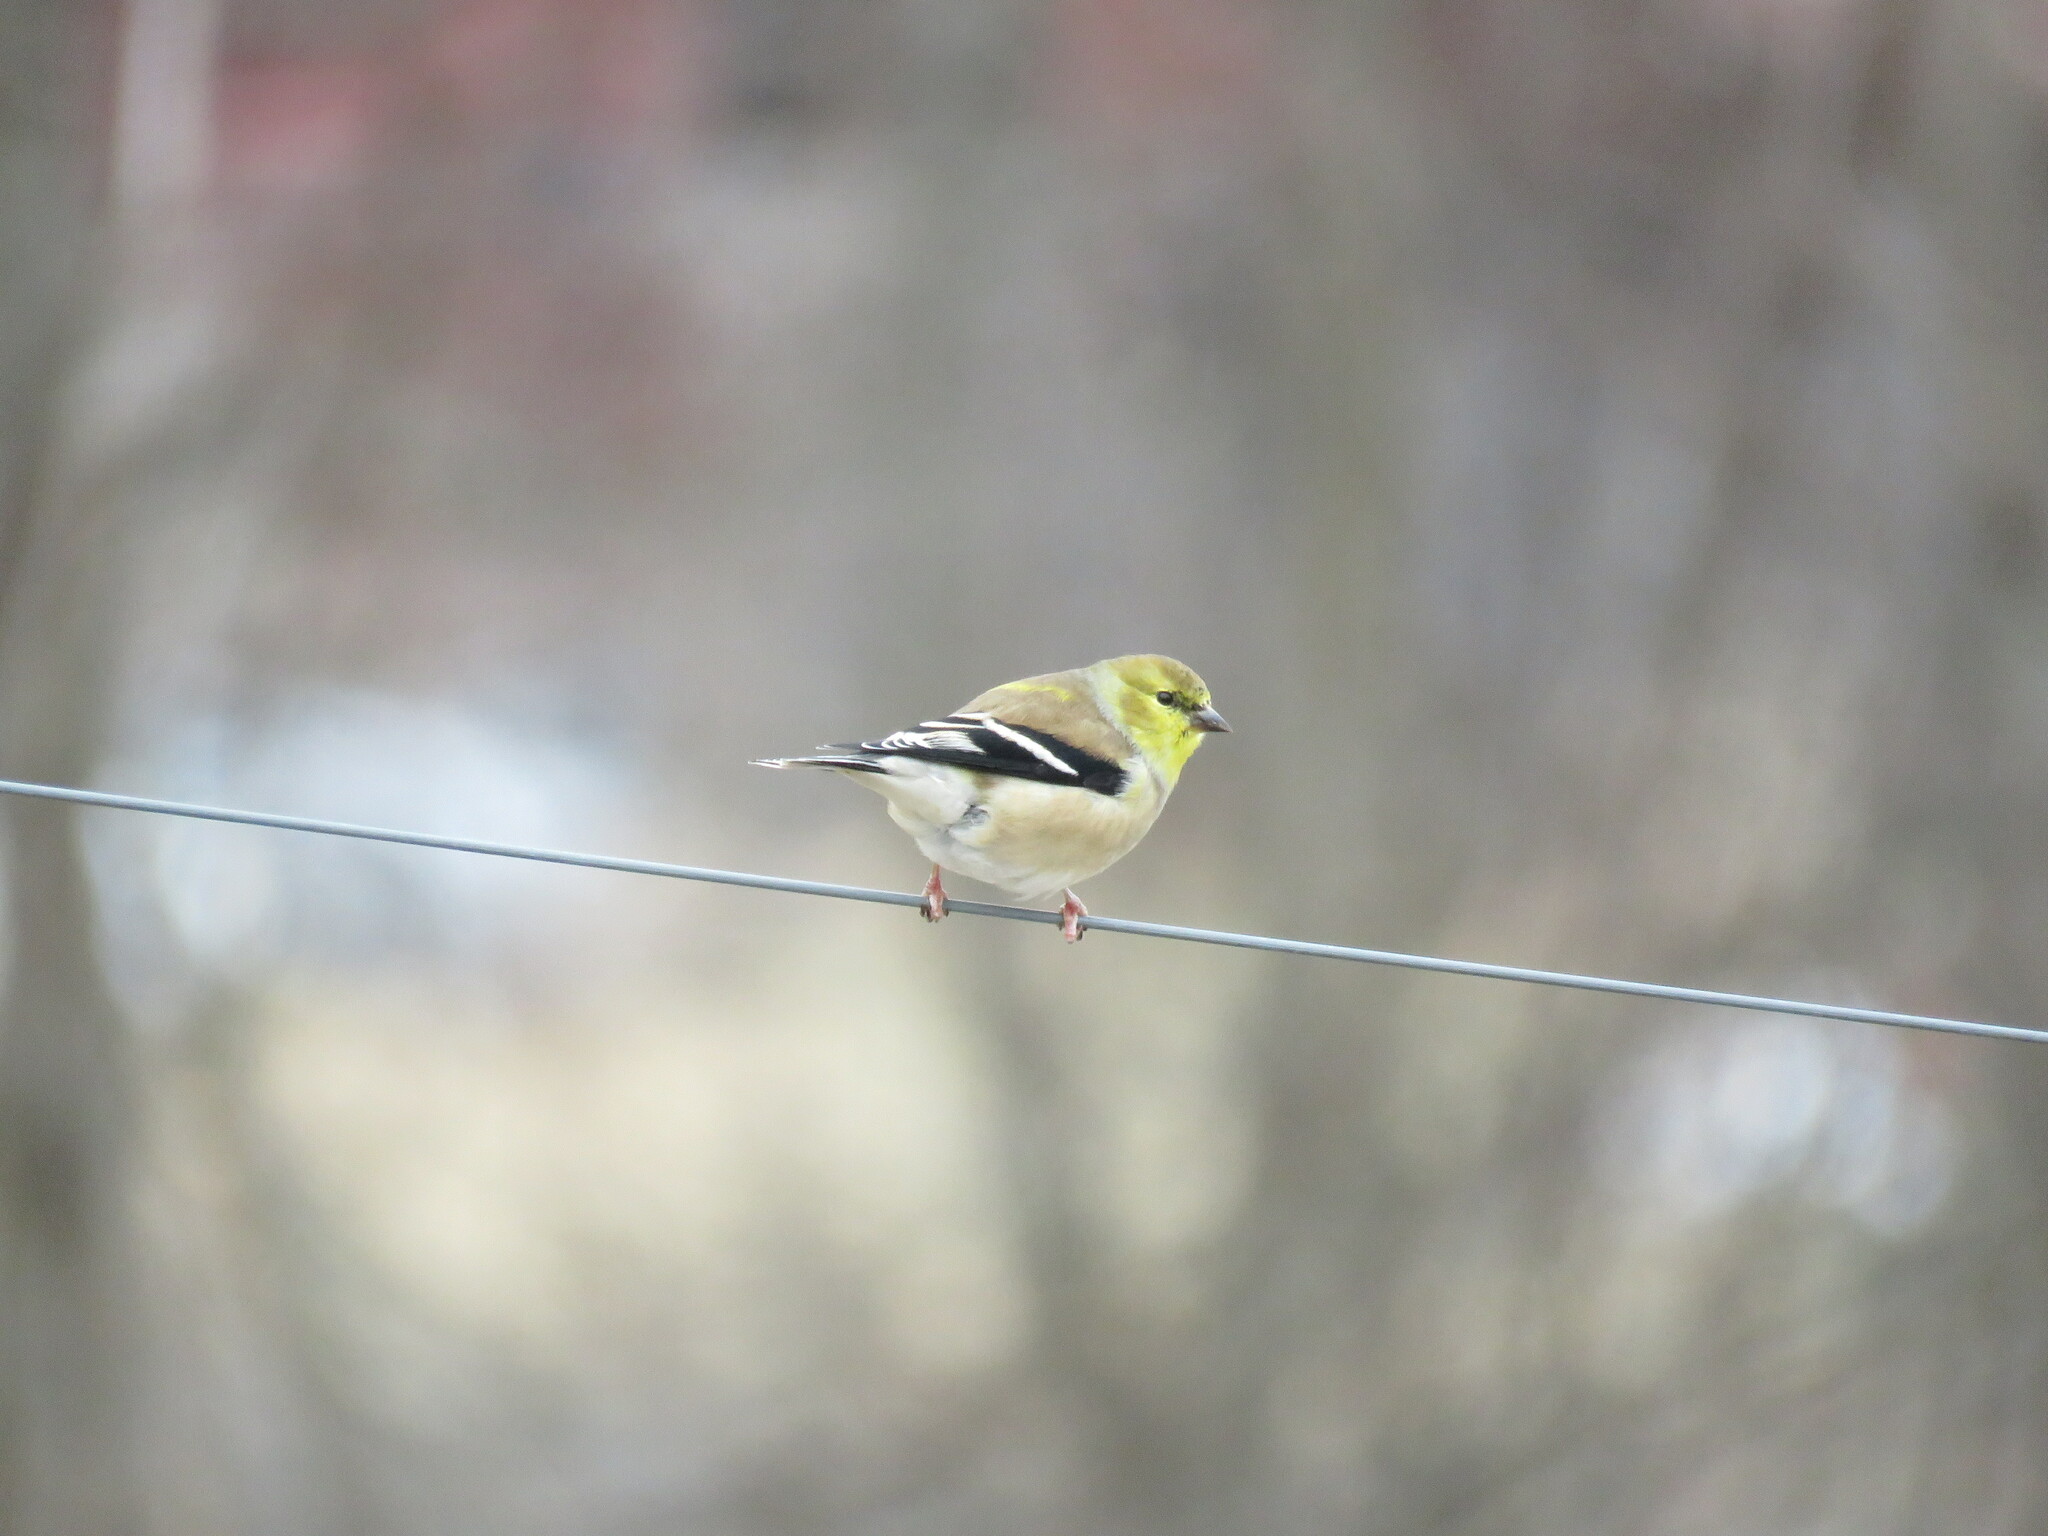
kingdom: Animalia
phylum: Chordata
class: Aves
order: Passeriformes
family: Fringillidae
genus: Spinus
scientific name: Spinus tristis
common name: American goldfinch
